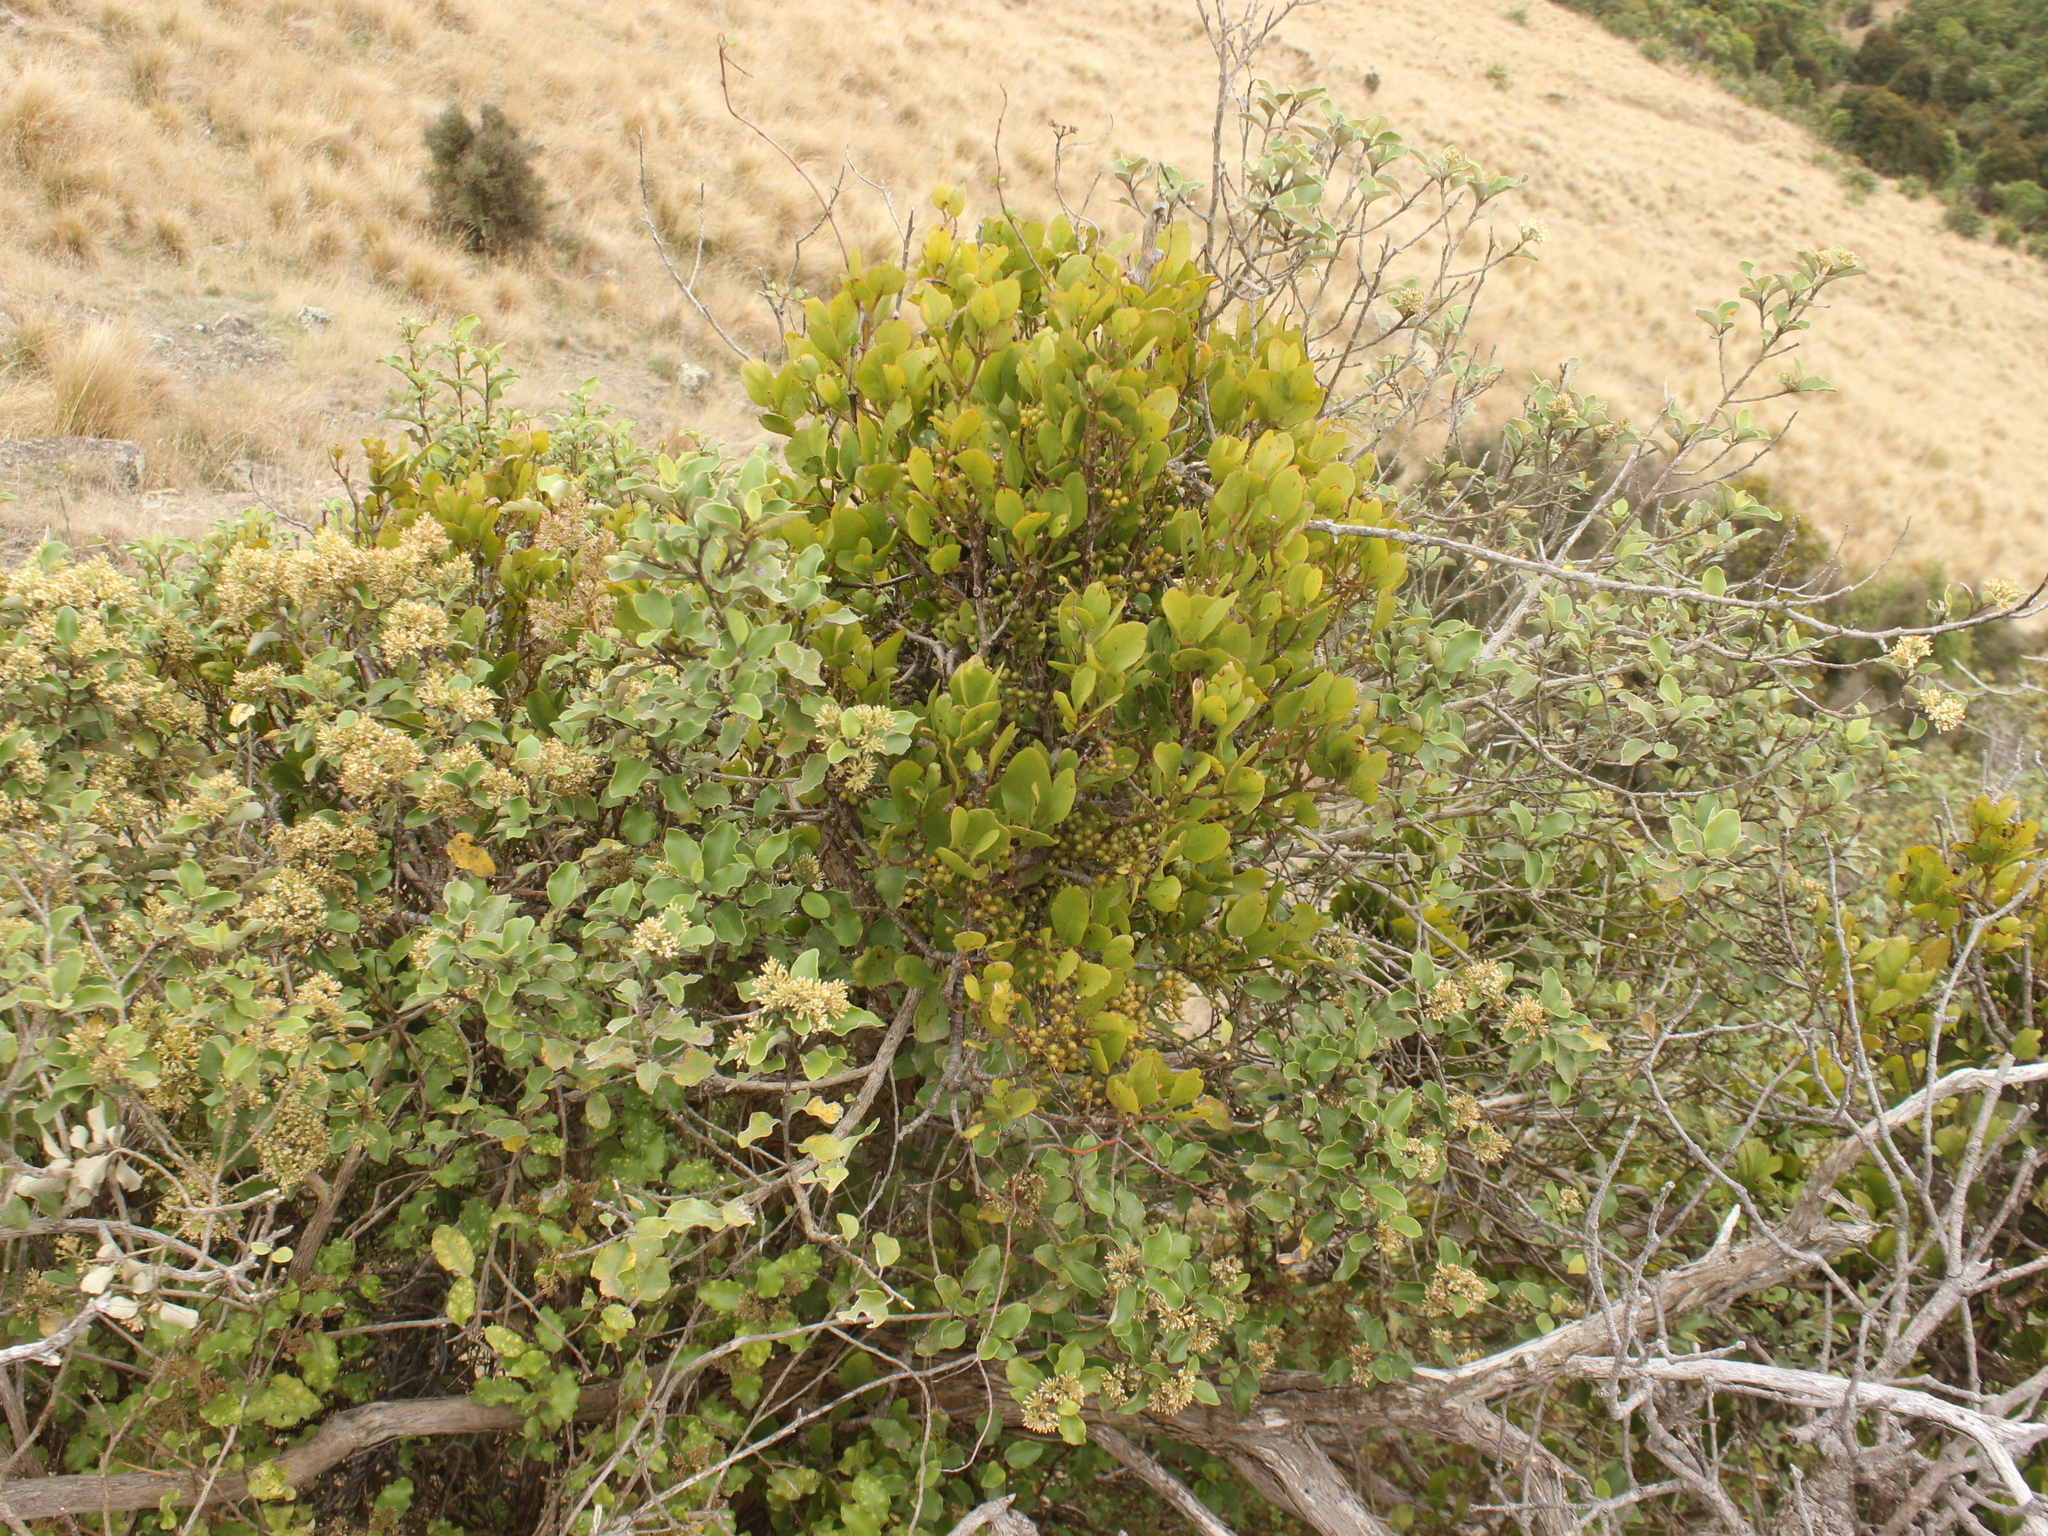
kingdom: Plantae
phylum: Tracheophyta
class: Magnoliopsida
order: Asterales
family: Asteraceae
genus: Olearia
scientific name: Olearia paniculata
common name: Akiraho
